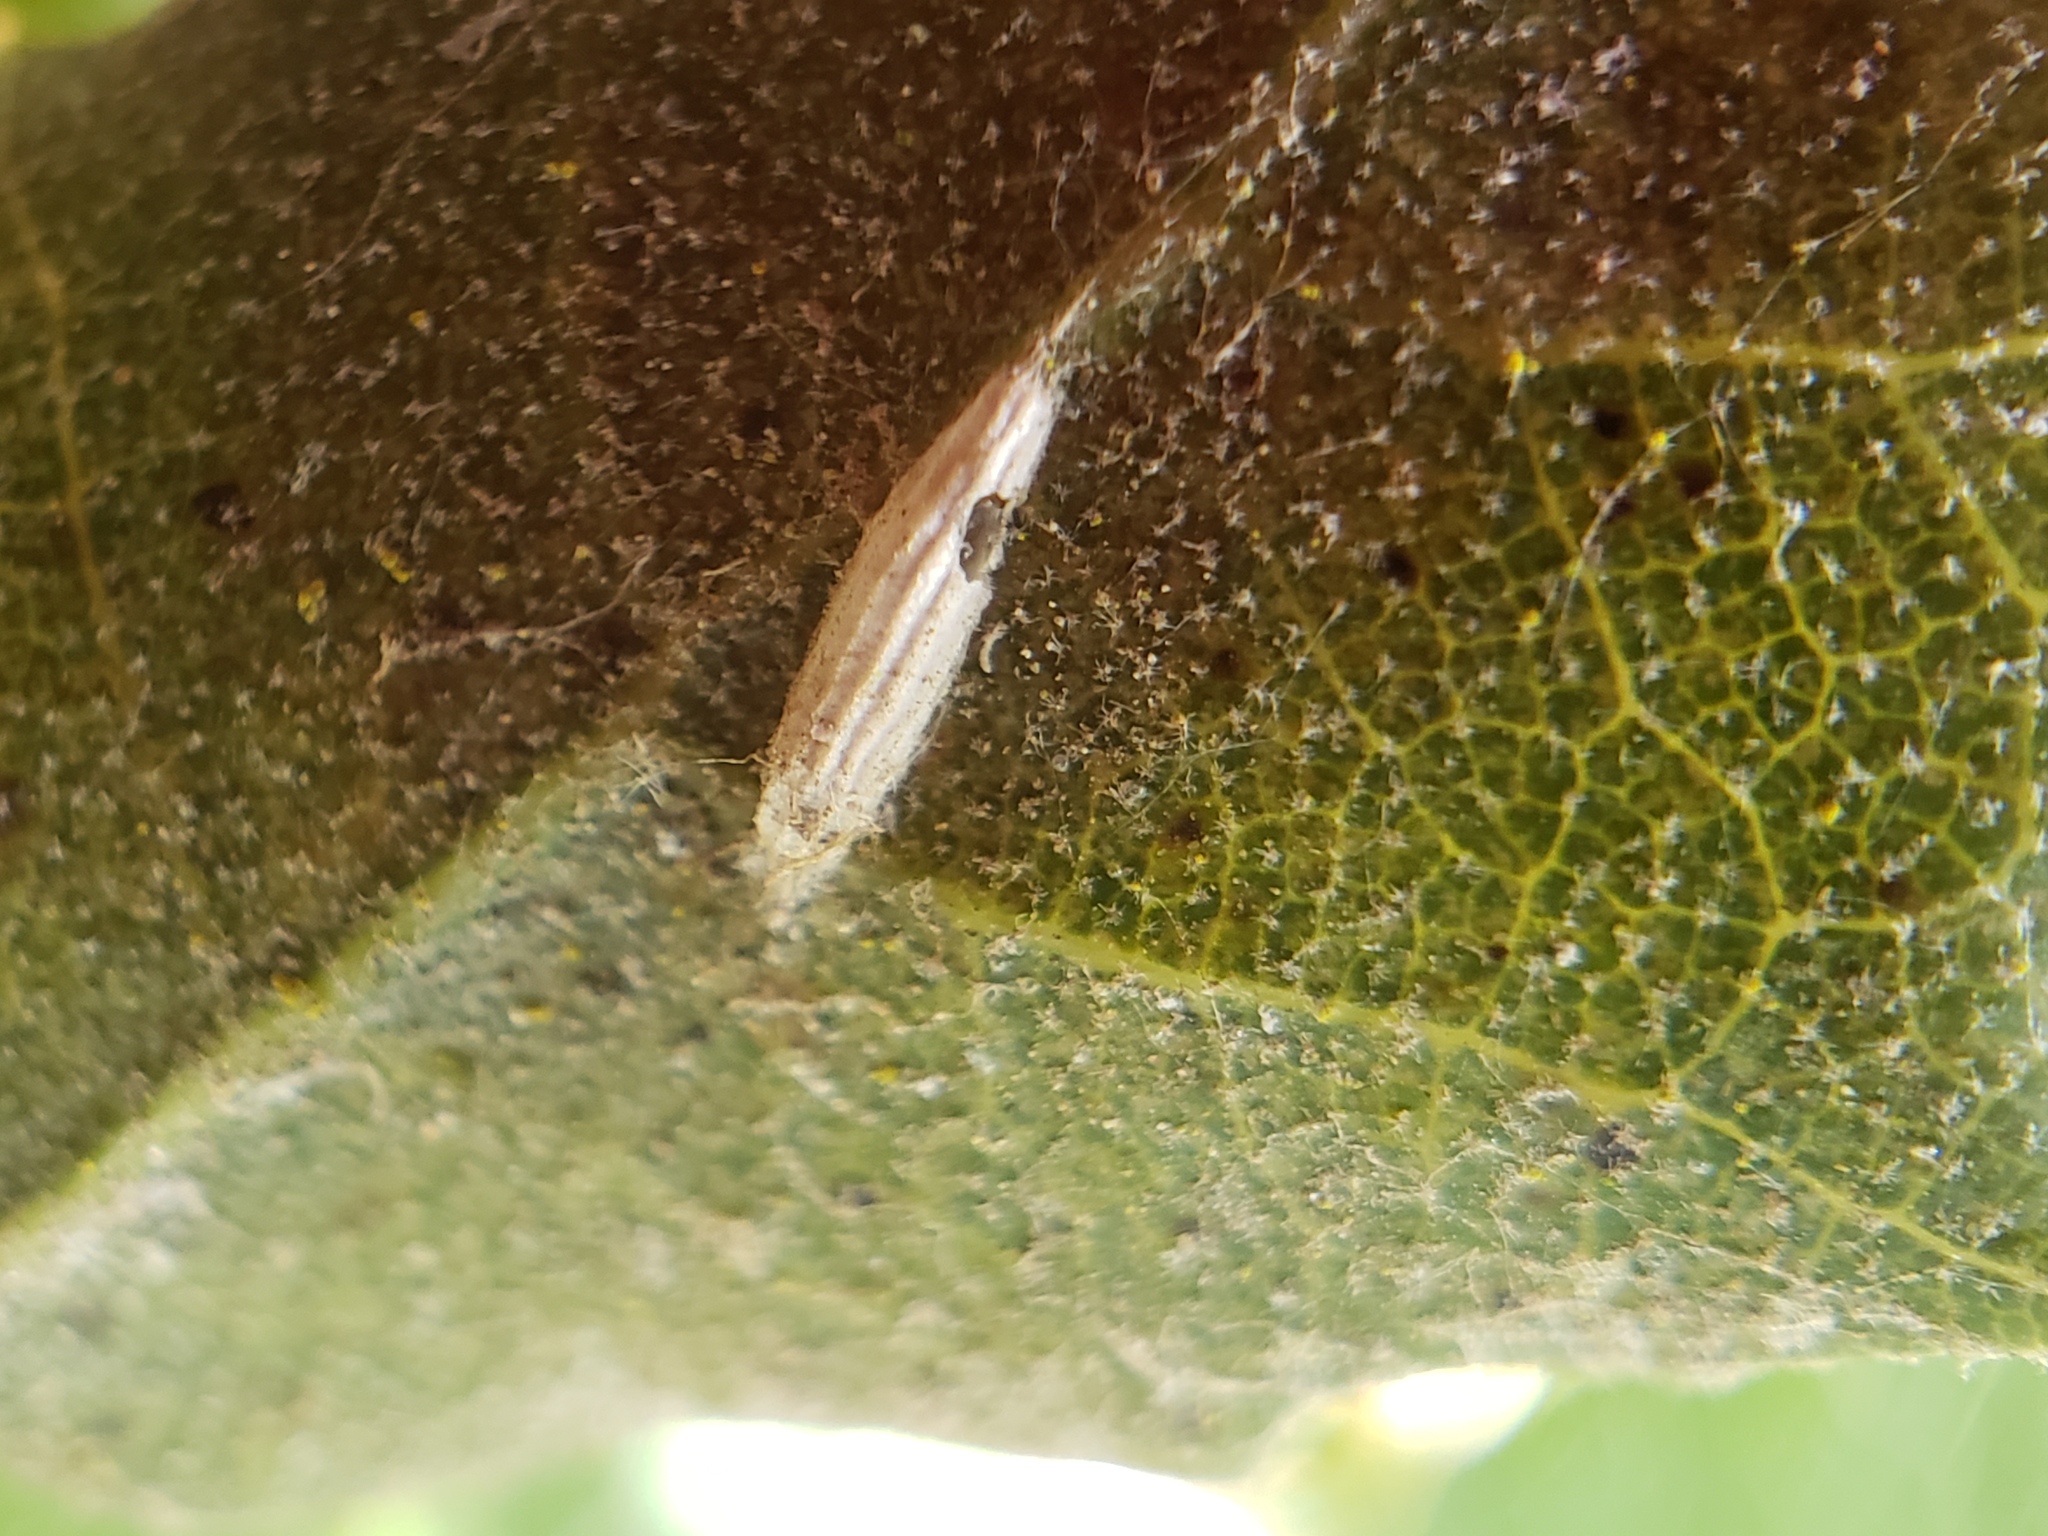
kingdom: Animalia
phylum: Arthropoda
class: Insecta
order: Lepidoptera
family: Bucculatricidae
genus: Bucculatrix
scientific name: Bucculatrix albertiella
